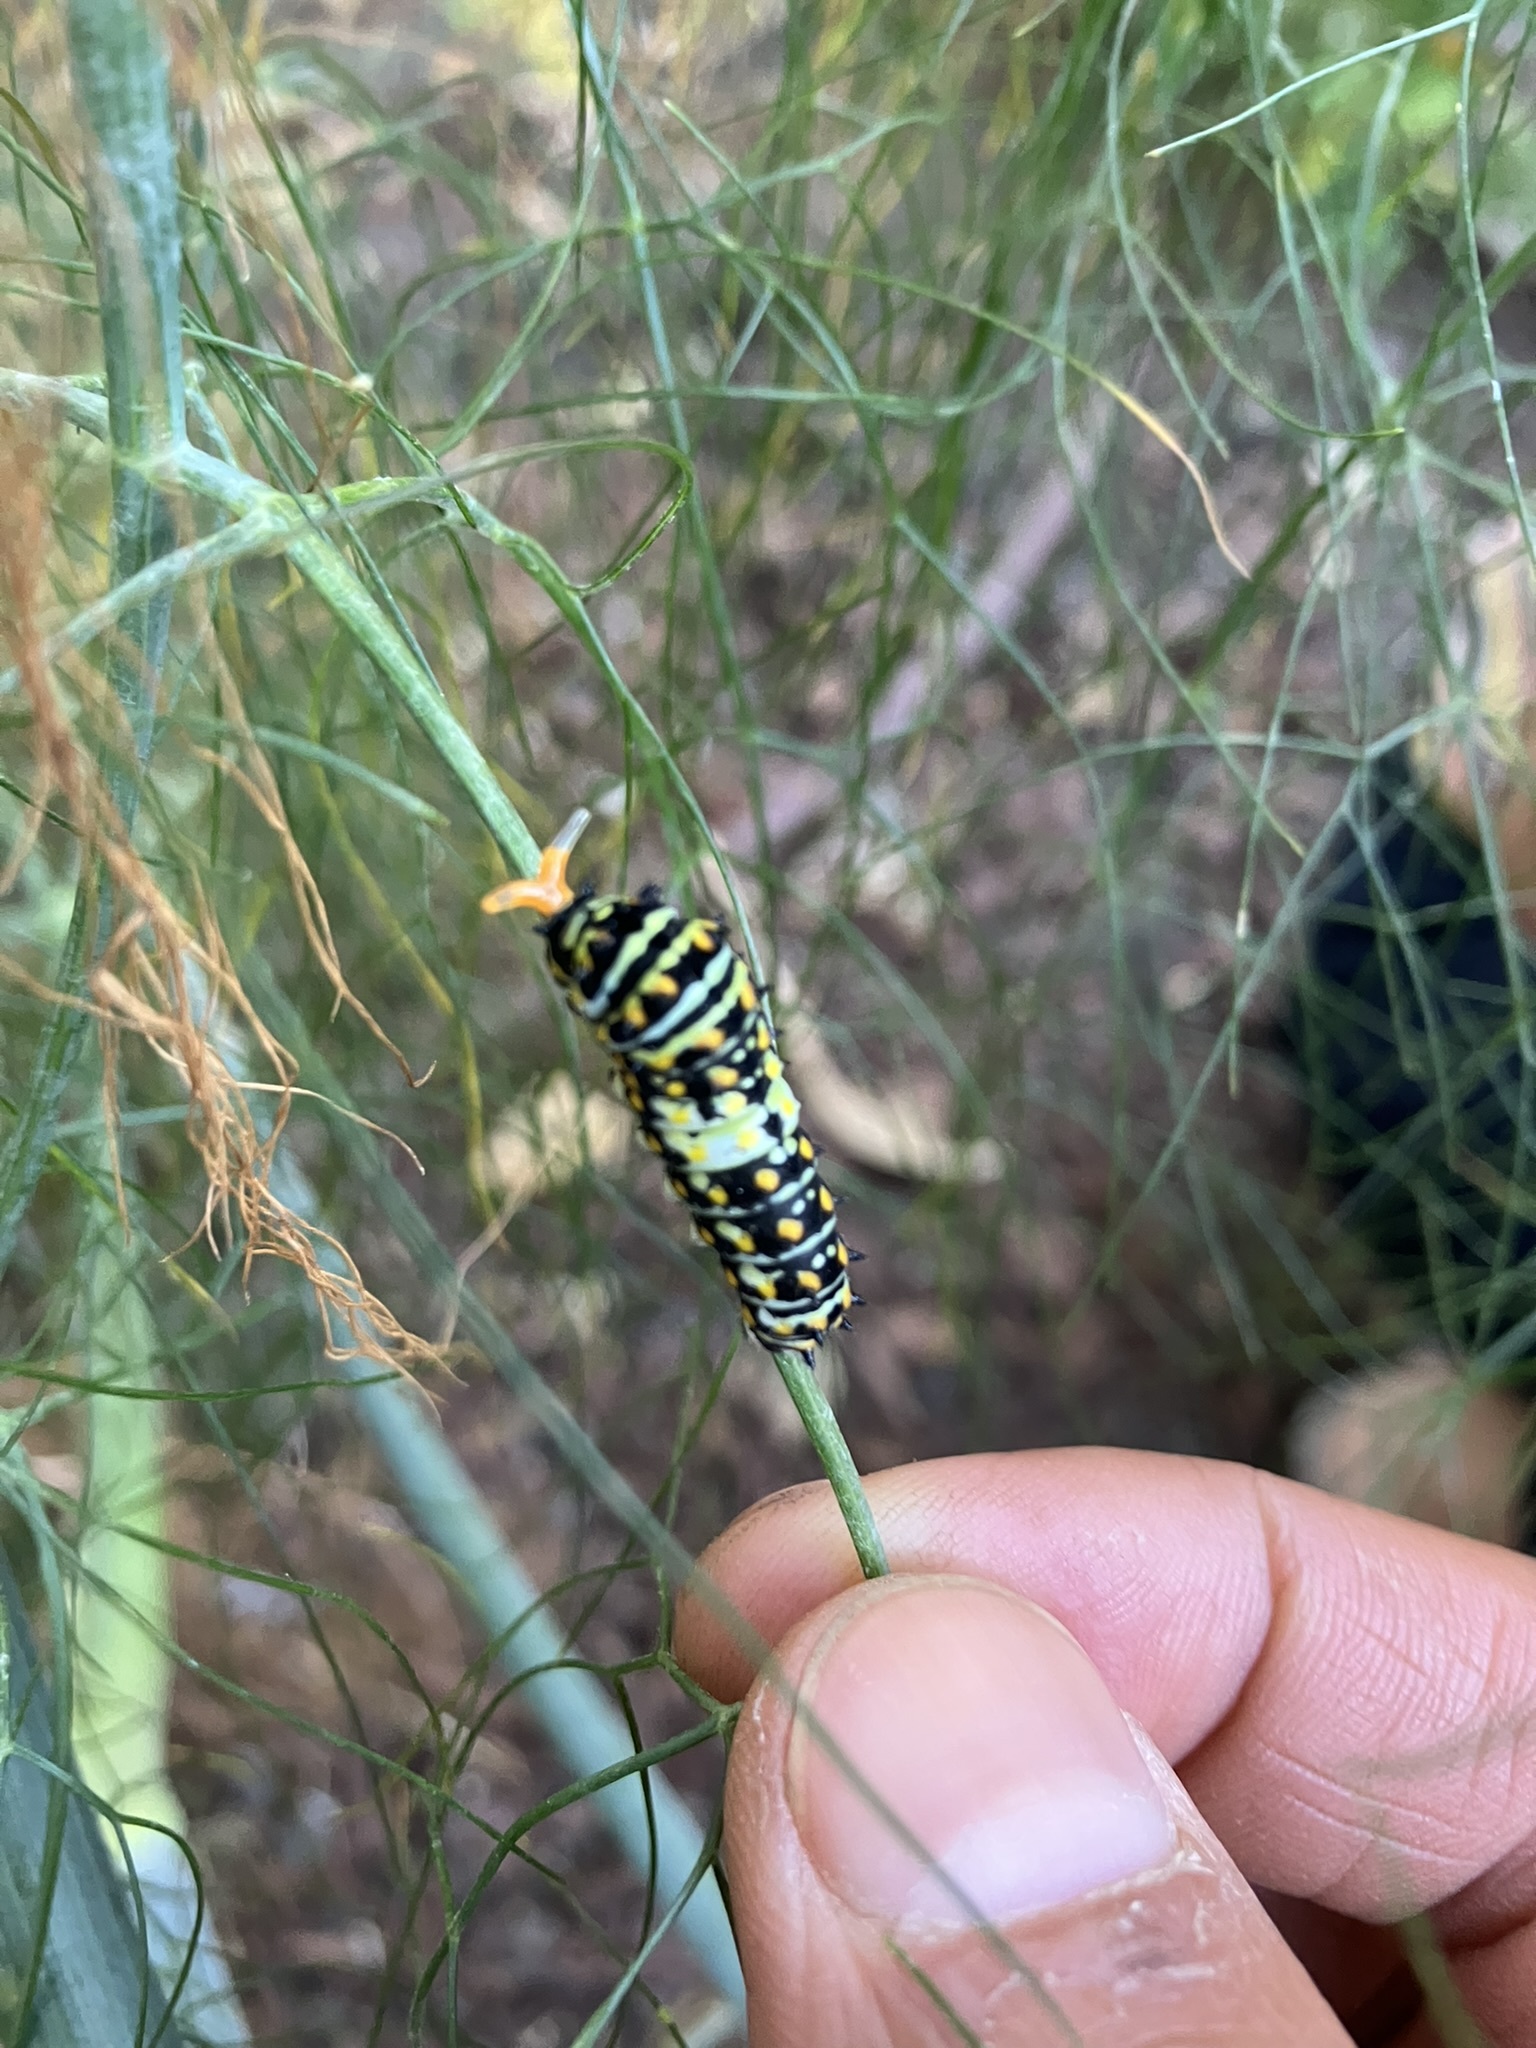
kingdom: Animalia
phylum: Arthropoda
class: Insecta
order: Lepidoptera
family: Papilionidae
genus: Papilio
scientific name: Papilio zelicaon
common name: Anise swallowtail
